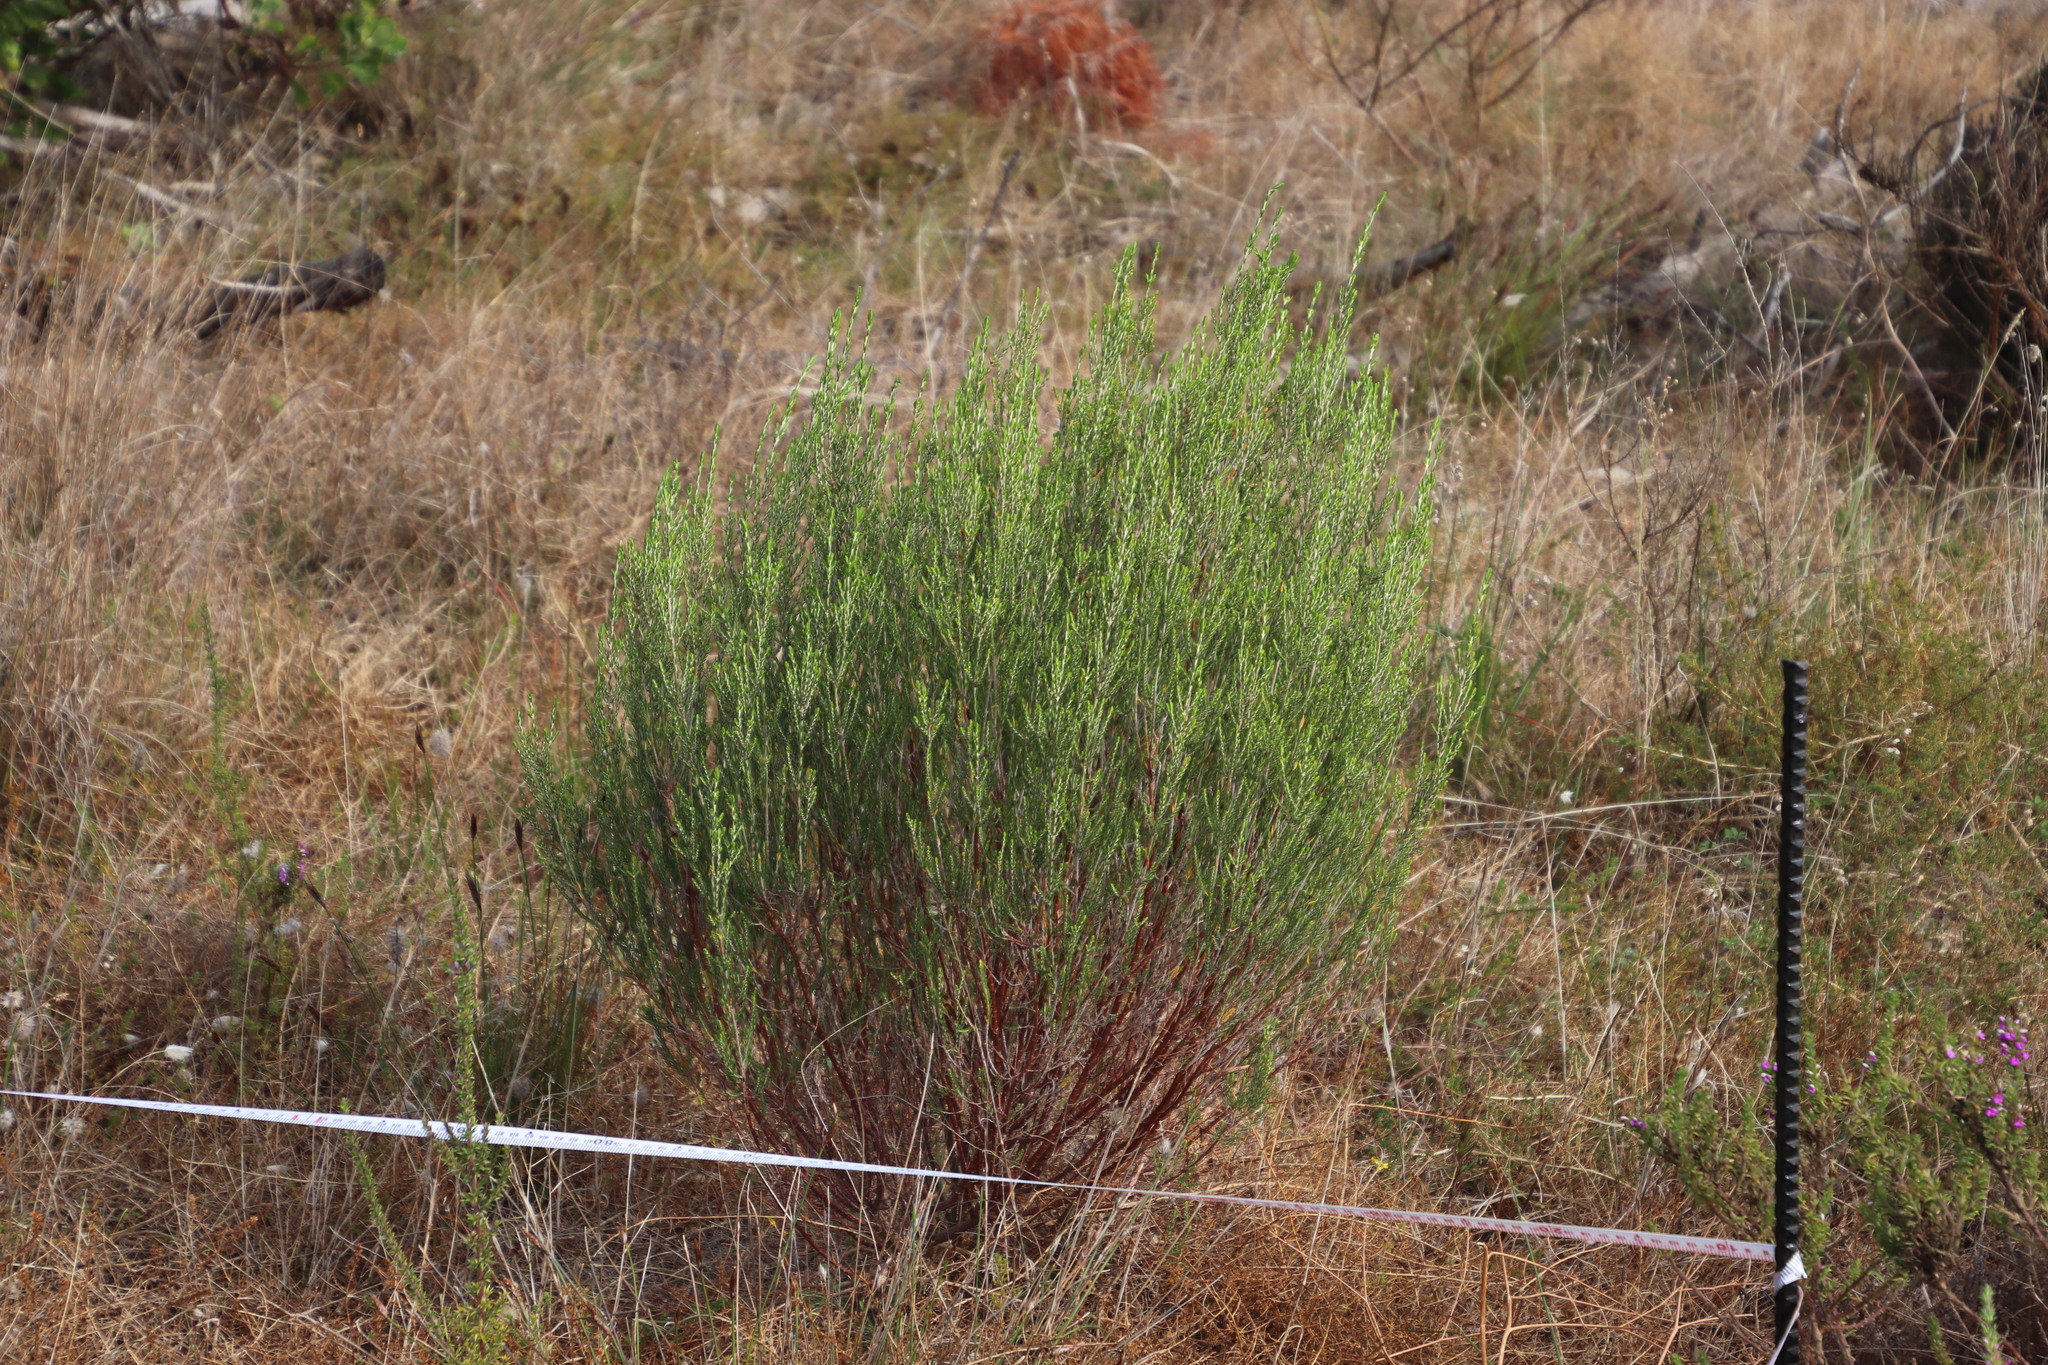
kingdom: Plantae
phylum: Tracheophyta
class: Magnoliopsida
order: Malvales
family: Thymelaeaceae
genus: Passerina
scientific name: Passerina corymbosa
